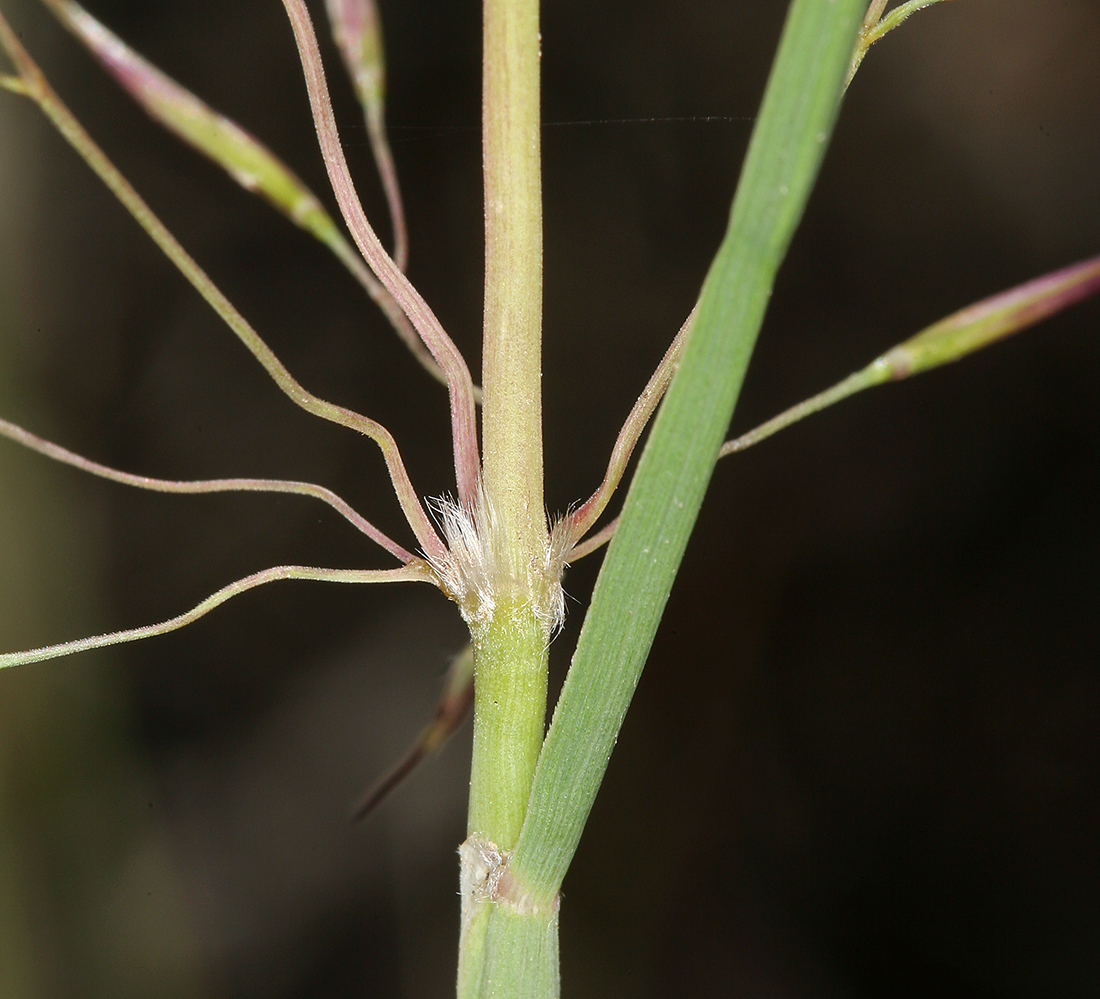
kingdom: Plantae
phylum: Tracheophyta
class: Liliopsida
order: Poales
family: Poaceae
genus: Eriocoma
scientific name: Eriocoma parishii
